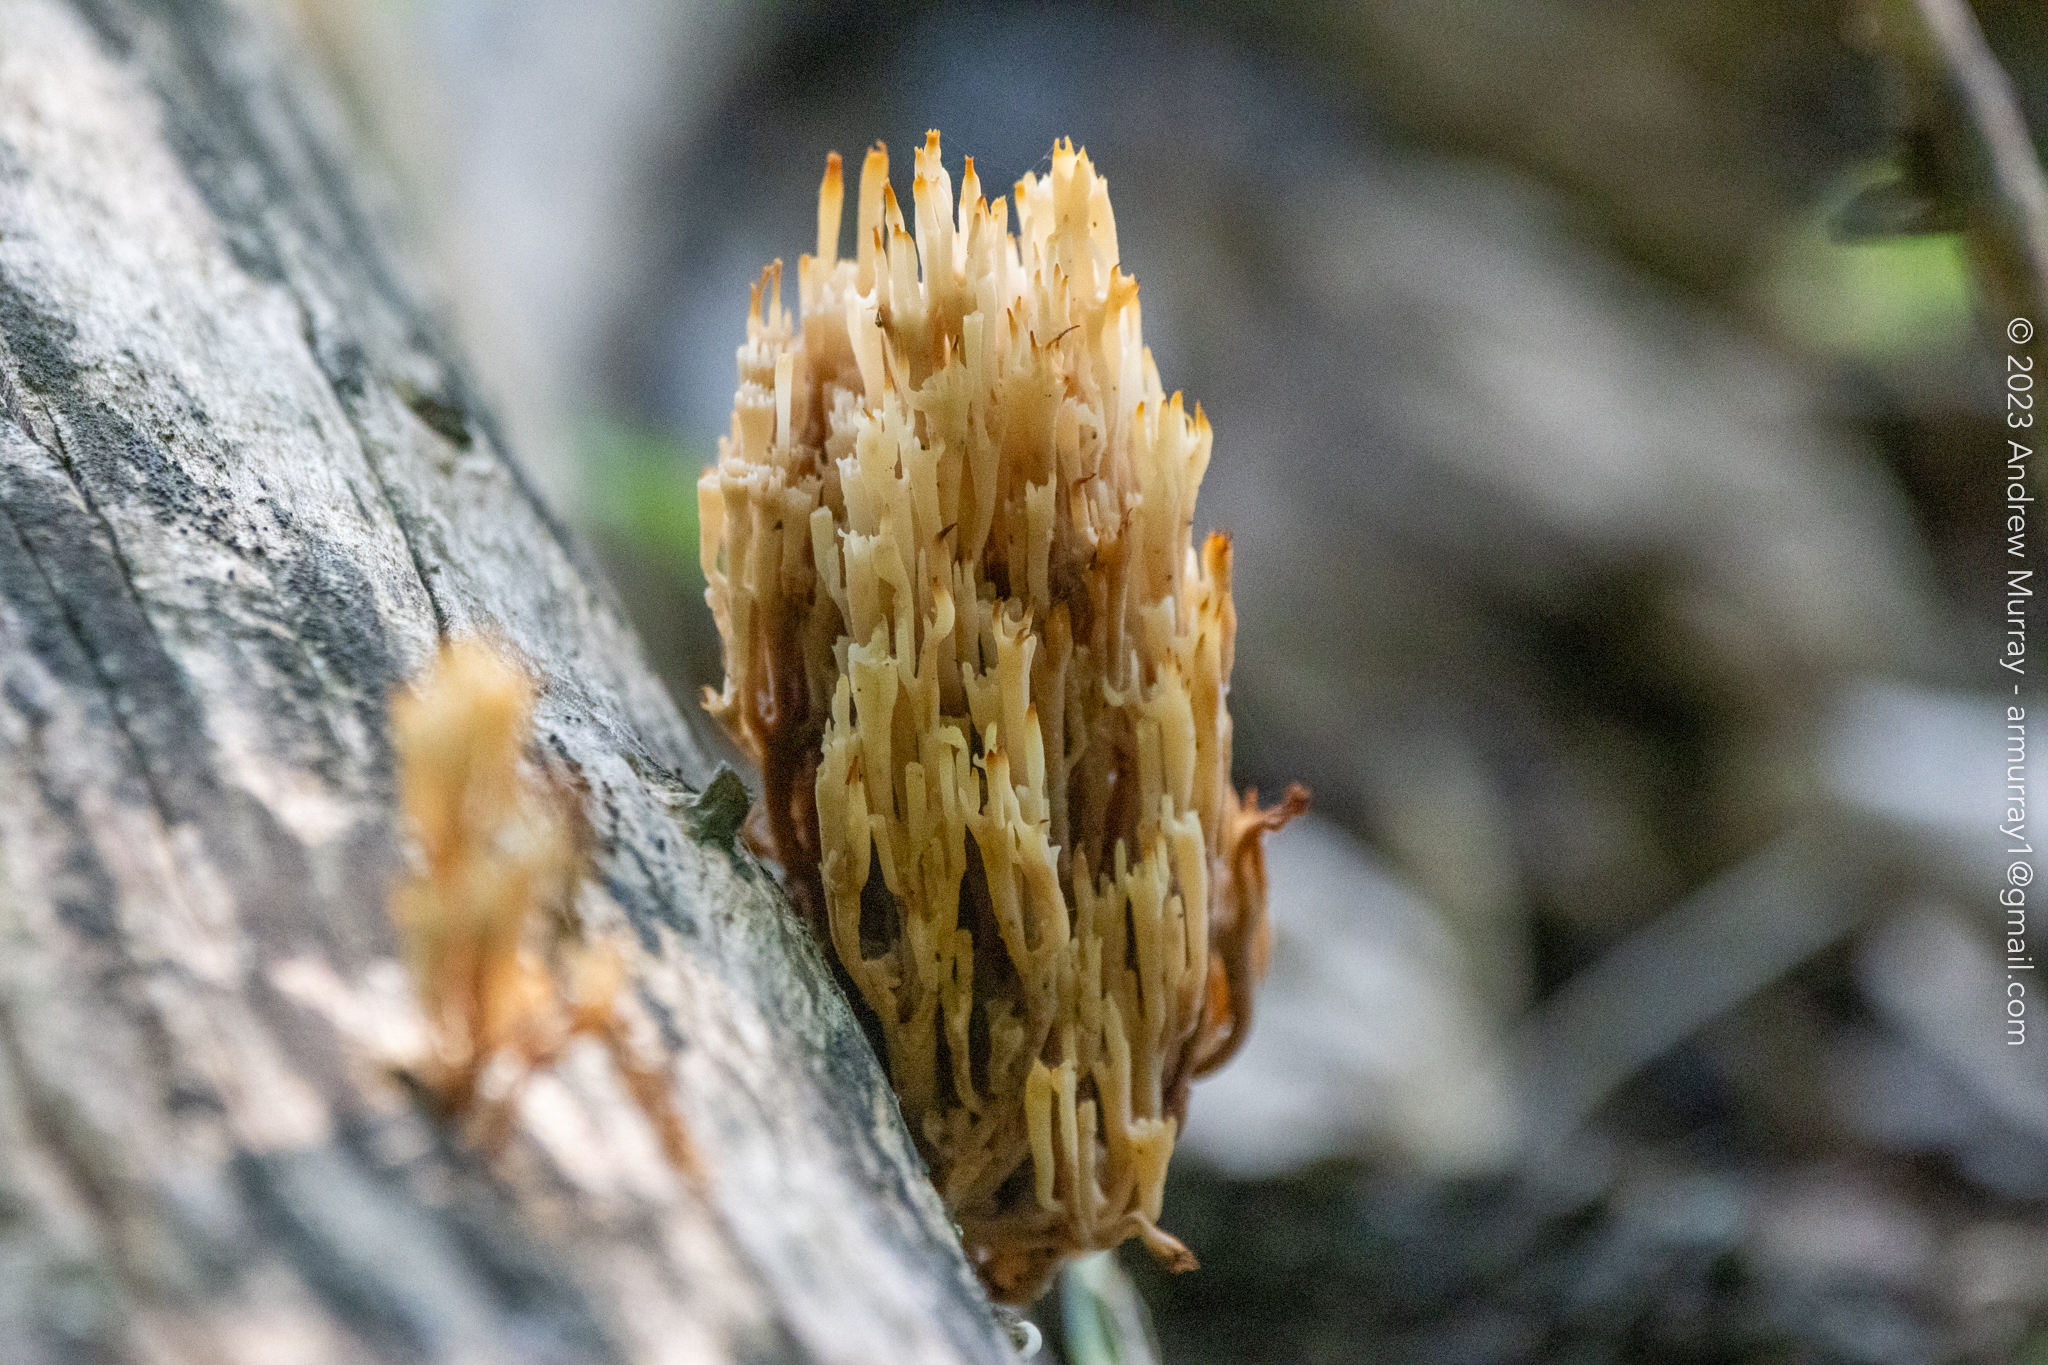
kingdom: Fungi
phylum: Basidiomycota
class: Agaricomycetes
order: Russulales
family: Auriscalpiaceae
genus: Artomyces
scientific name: Artomyces pyxidatus
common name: Crown-tipped coral fungus
